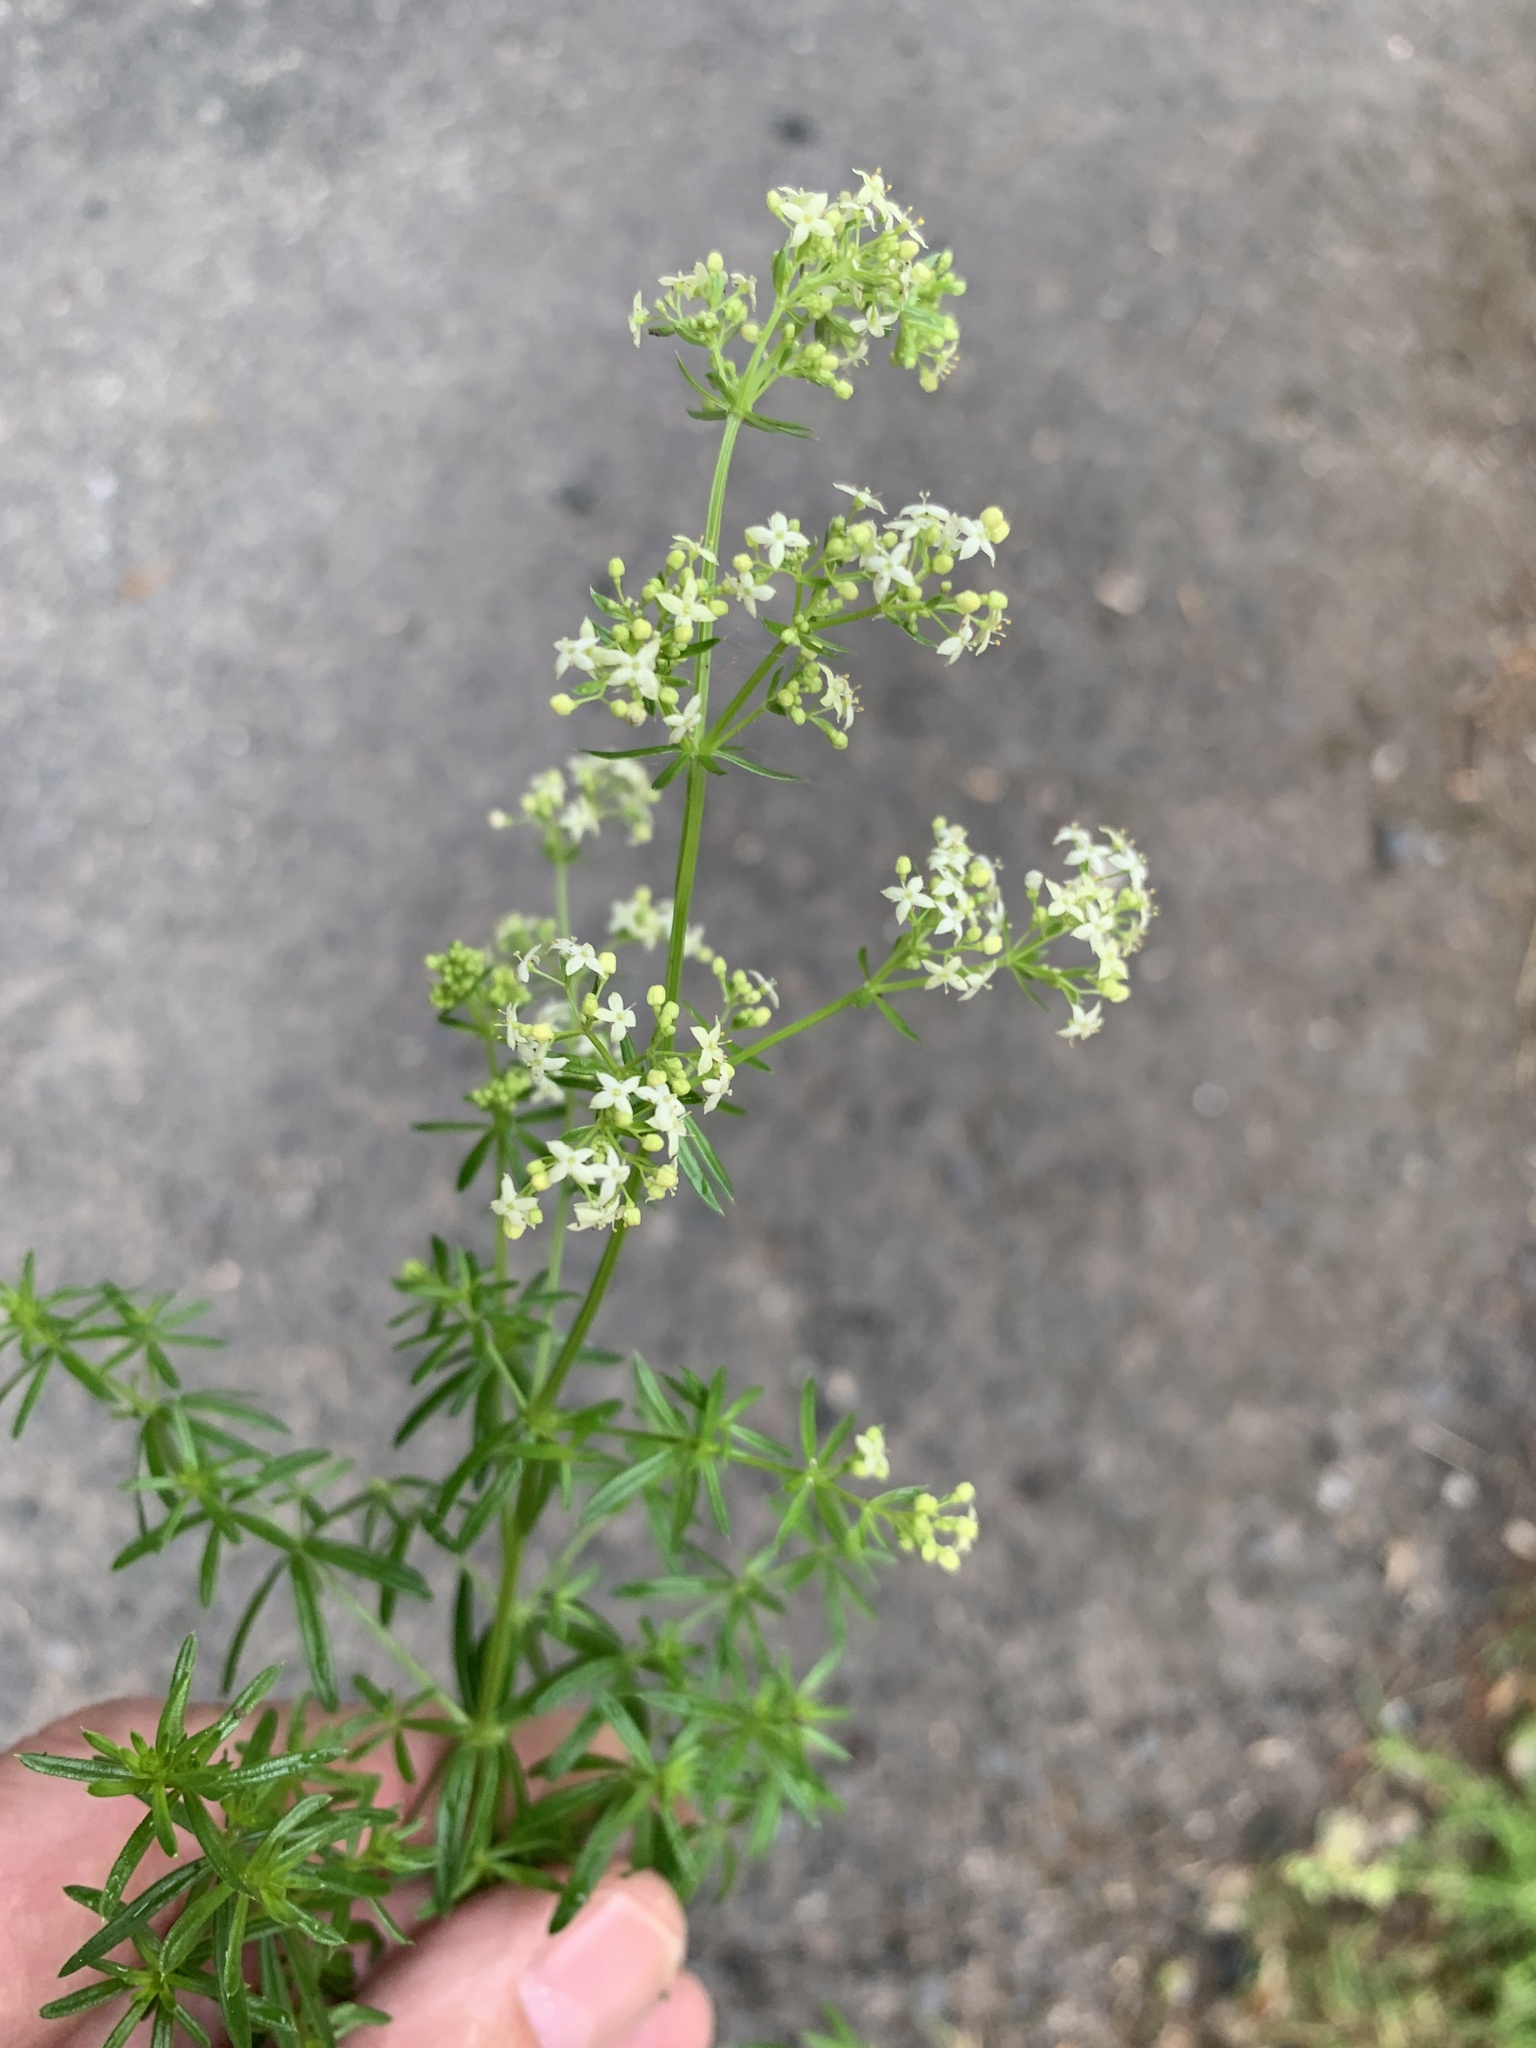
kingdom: Plantae
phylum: Tracheophyta
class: Magnoliopsida
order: Gentianales
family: Rubiaceae
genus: Galium
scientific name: Galium album
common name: White bedstraw
